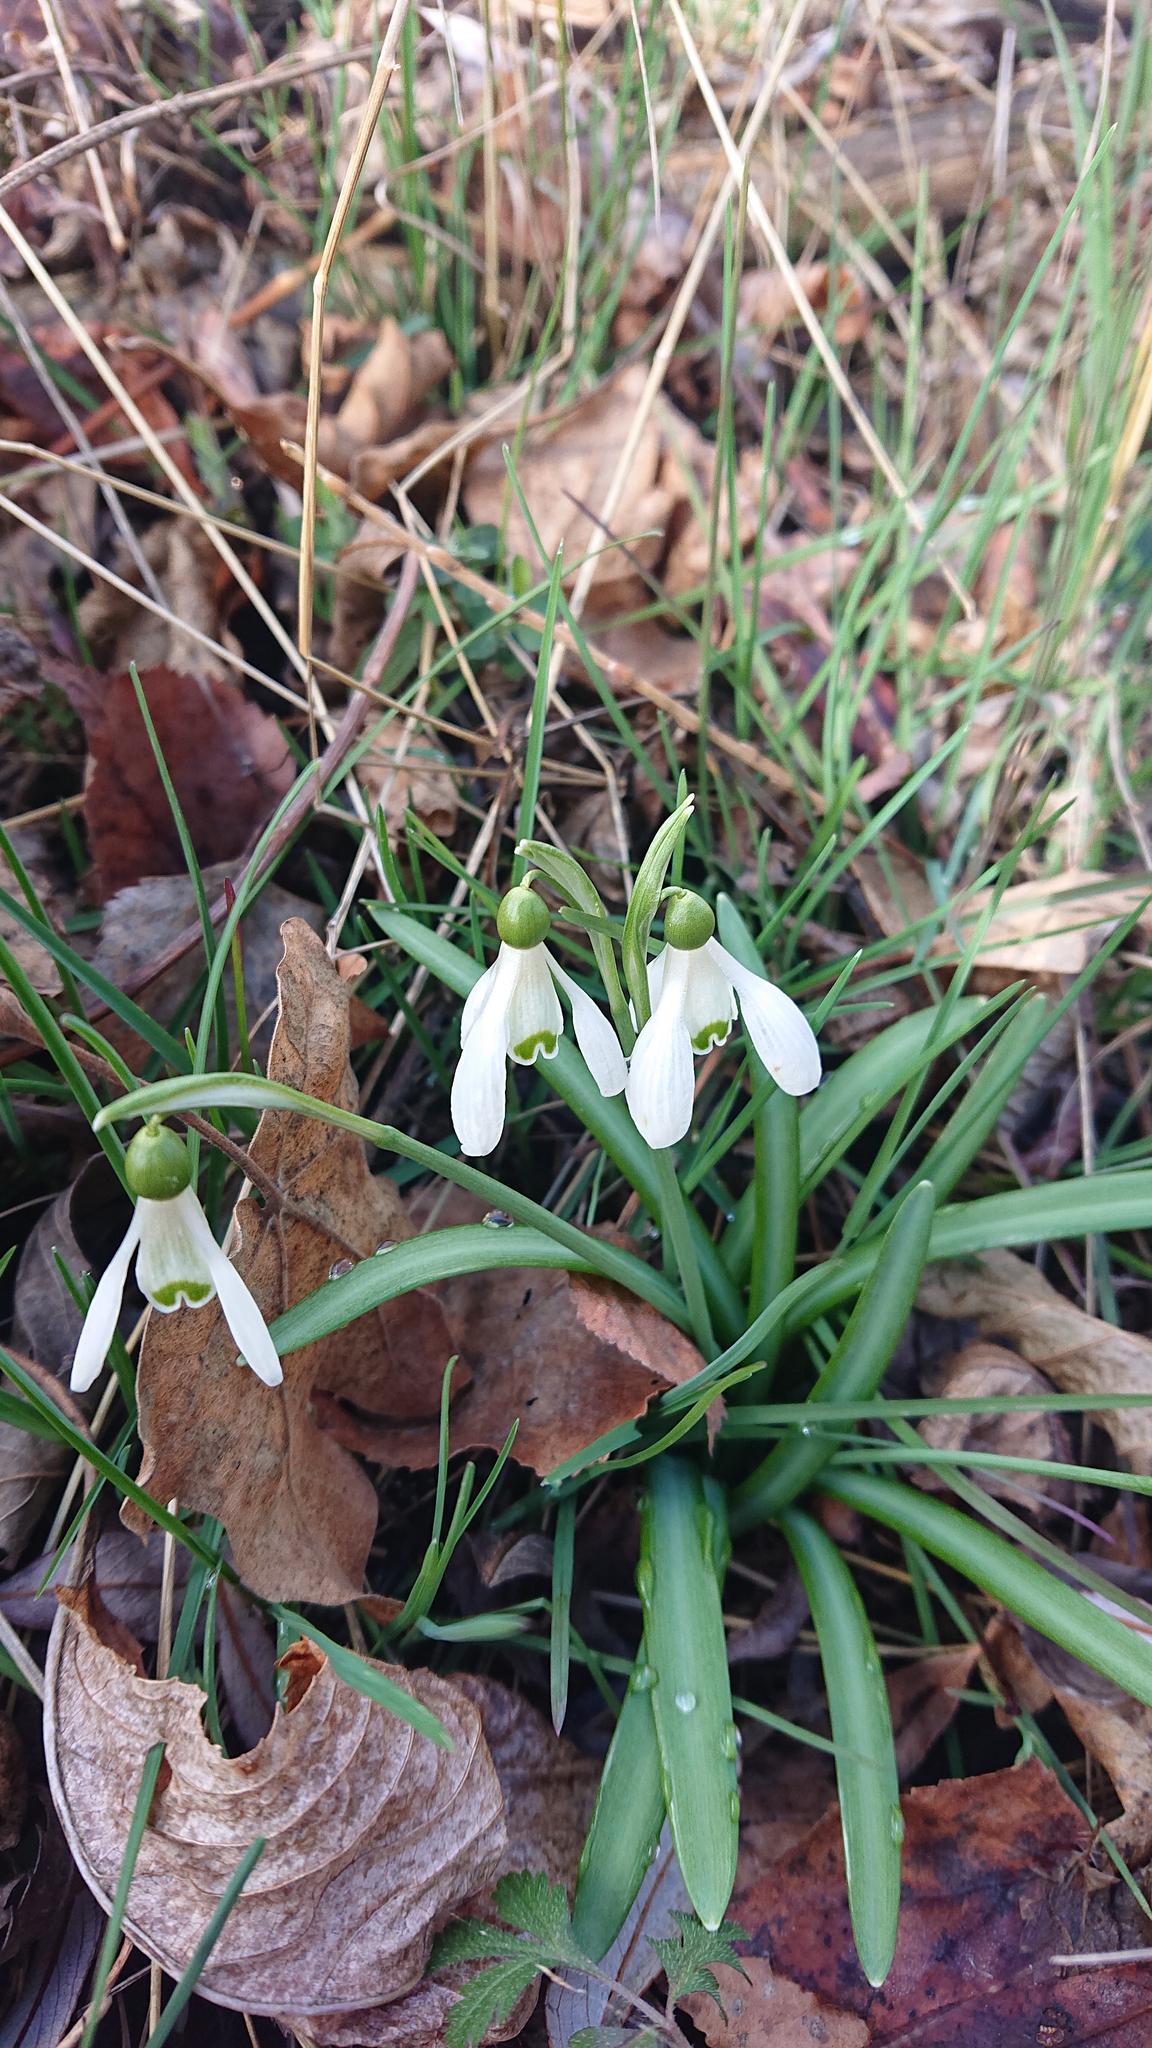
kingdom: Plantae
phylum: Tracheophyta
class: Liliopsida
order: Asparagales
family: Amaryllidaceae
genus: Galanthus
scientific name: Galanthus nivalis
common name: Snowdrop
